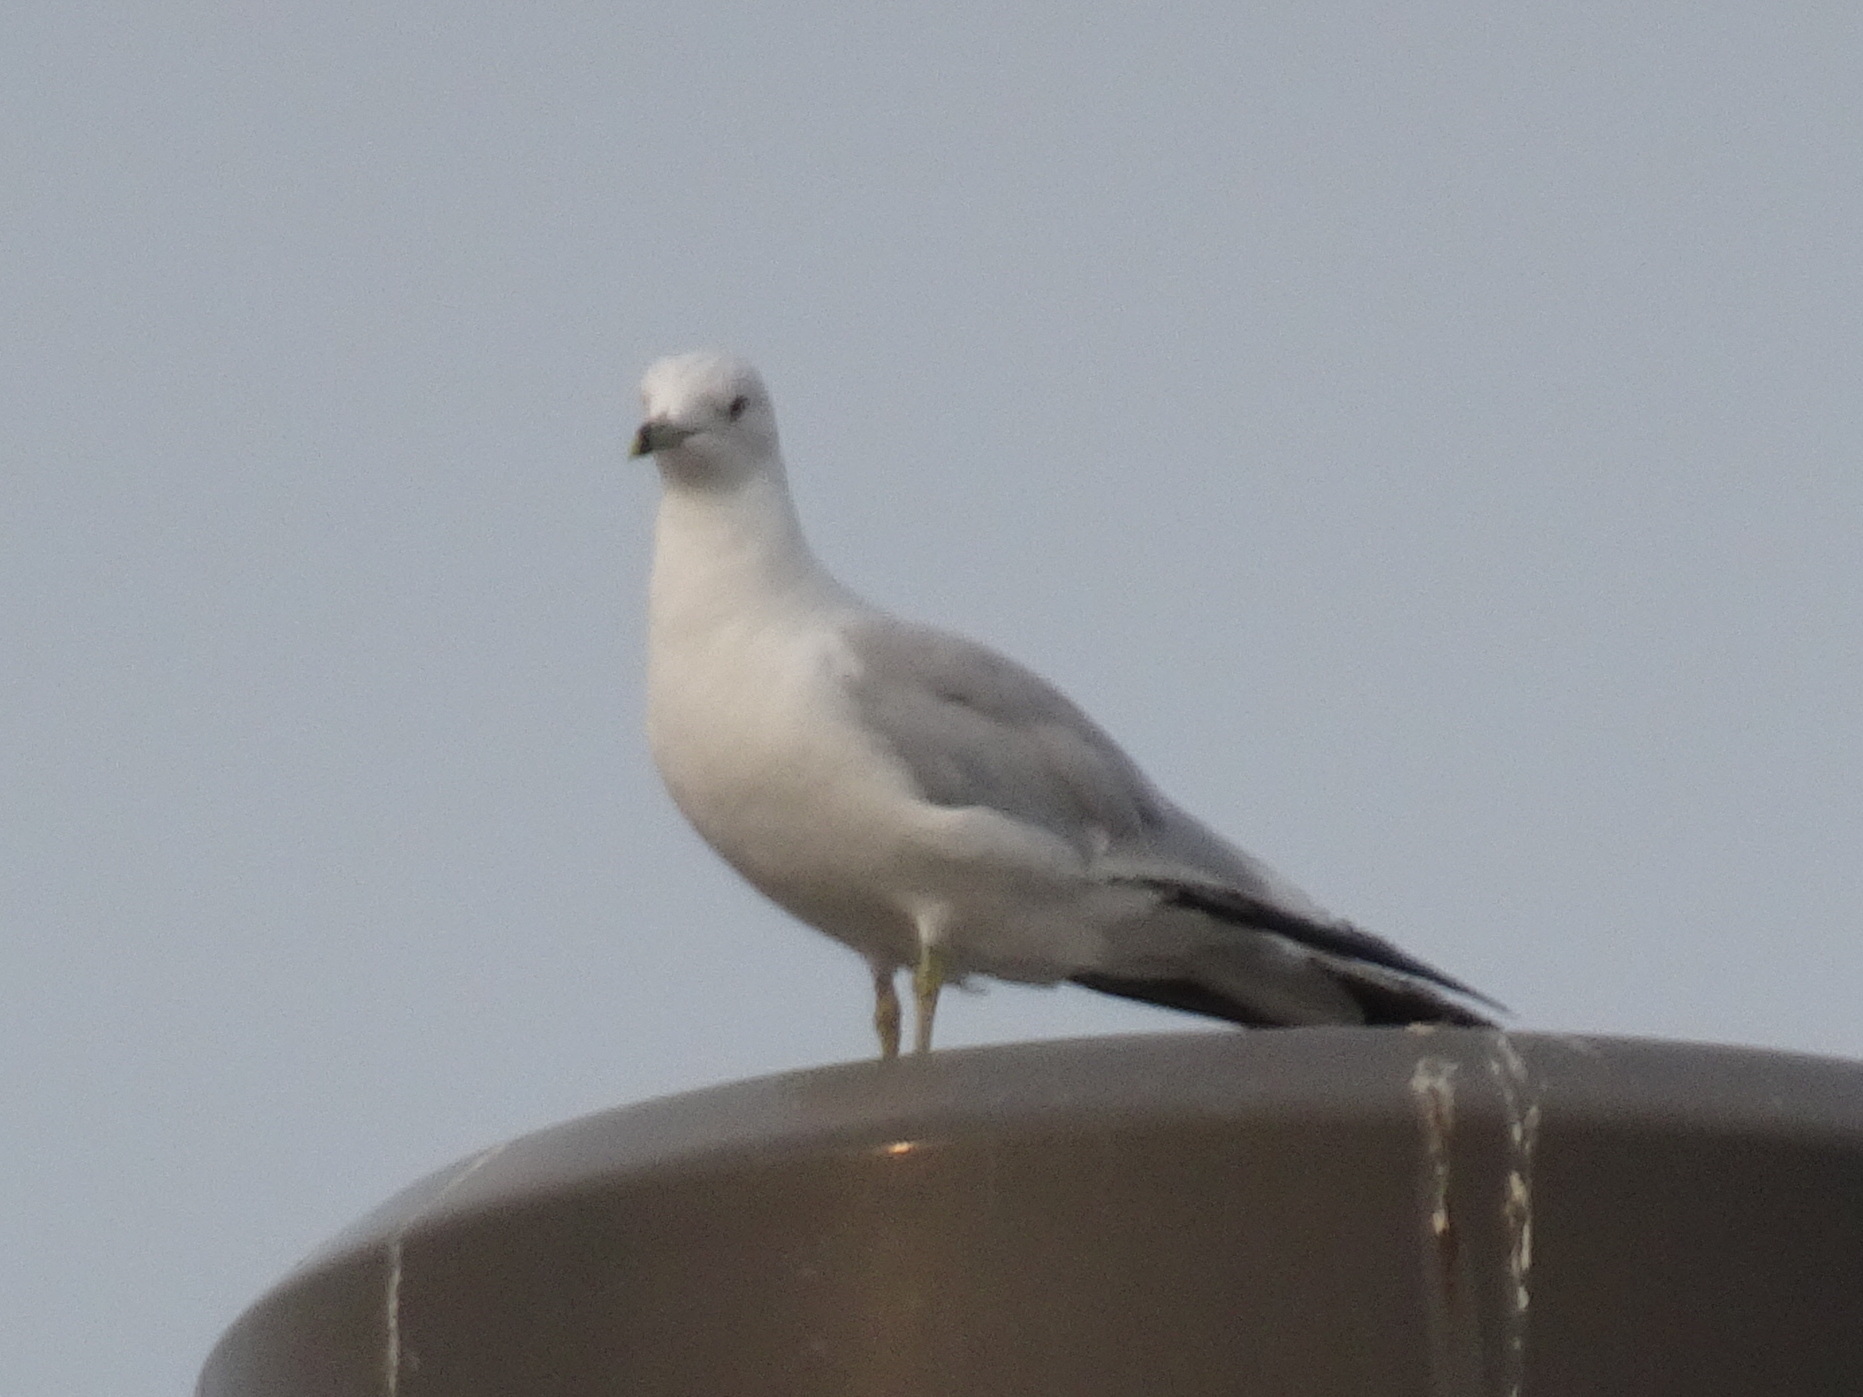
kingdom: Animalia
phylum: Chordata
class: Aves
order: Charadriiformes
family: Laridae
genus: Larus
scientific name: Larus delawarensis
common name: Ring-billed gull
